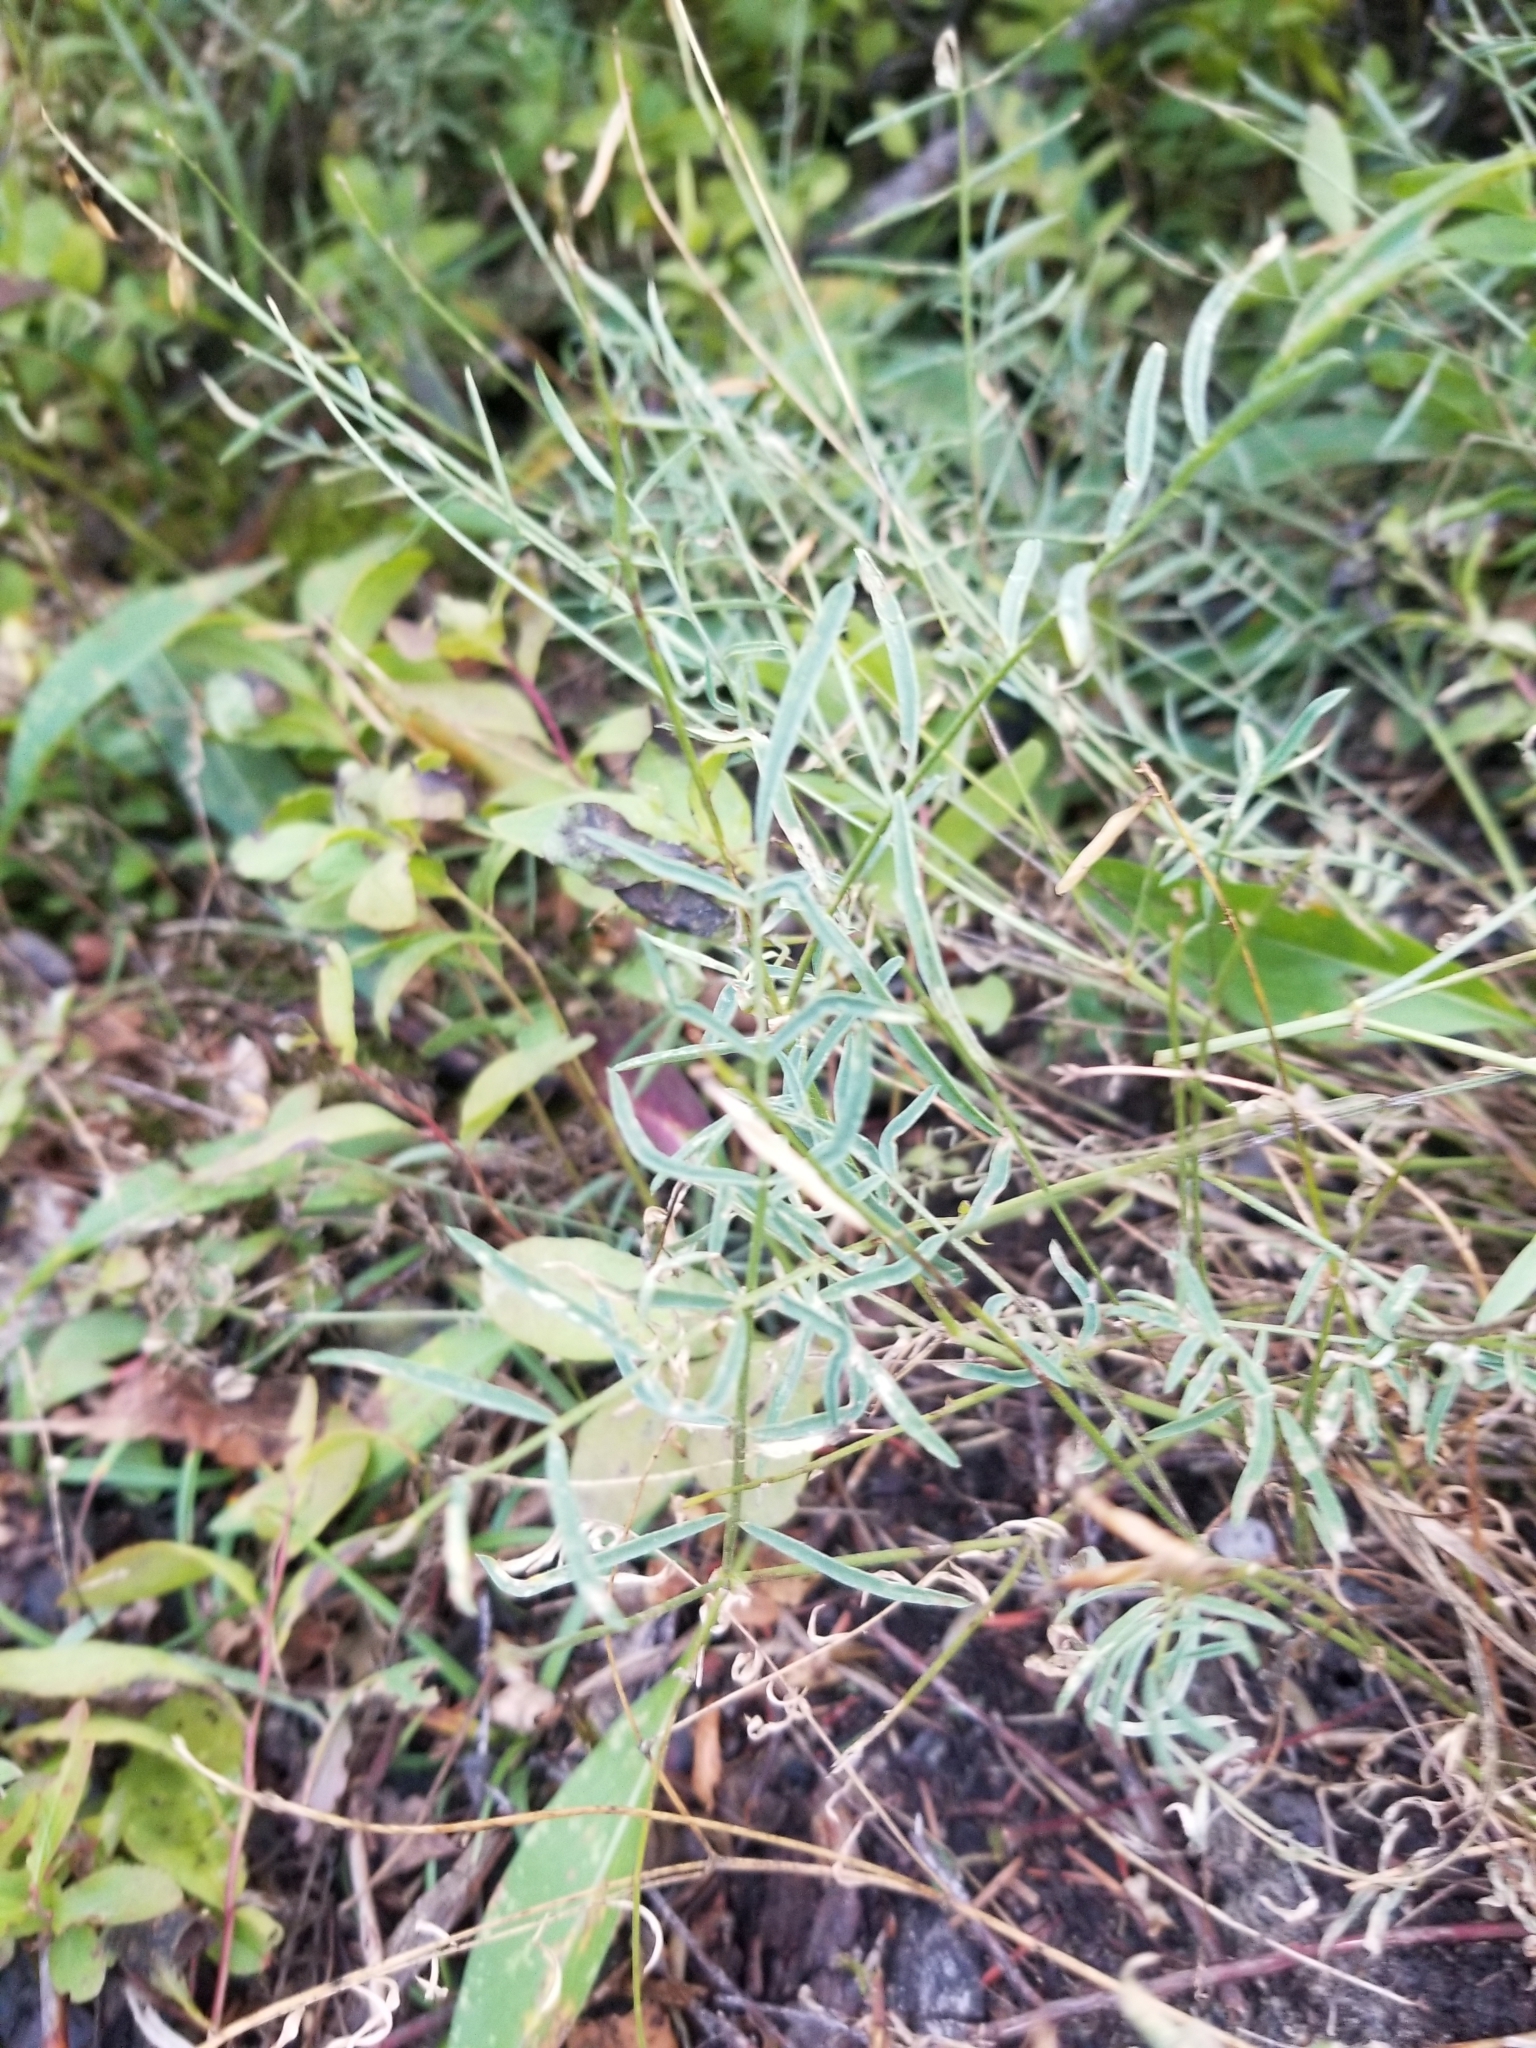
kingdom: Plantae
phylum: Tracheophyta
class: Magnoliopsida
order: Fabales
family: Fabaceae
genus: Astragalus
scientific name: Astragalus miser
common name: Timber milkvetch
